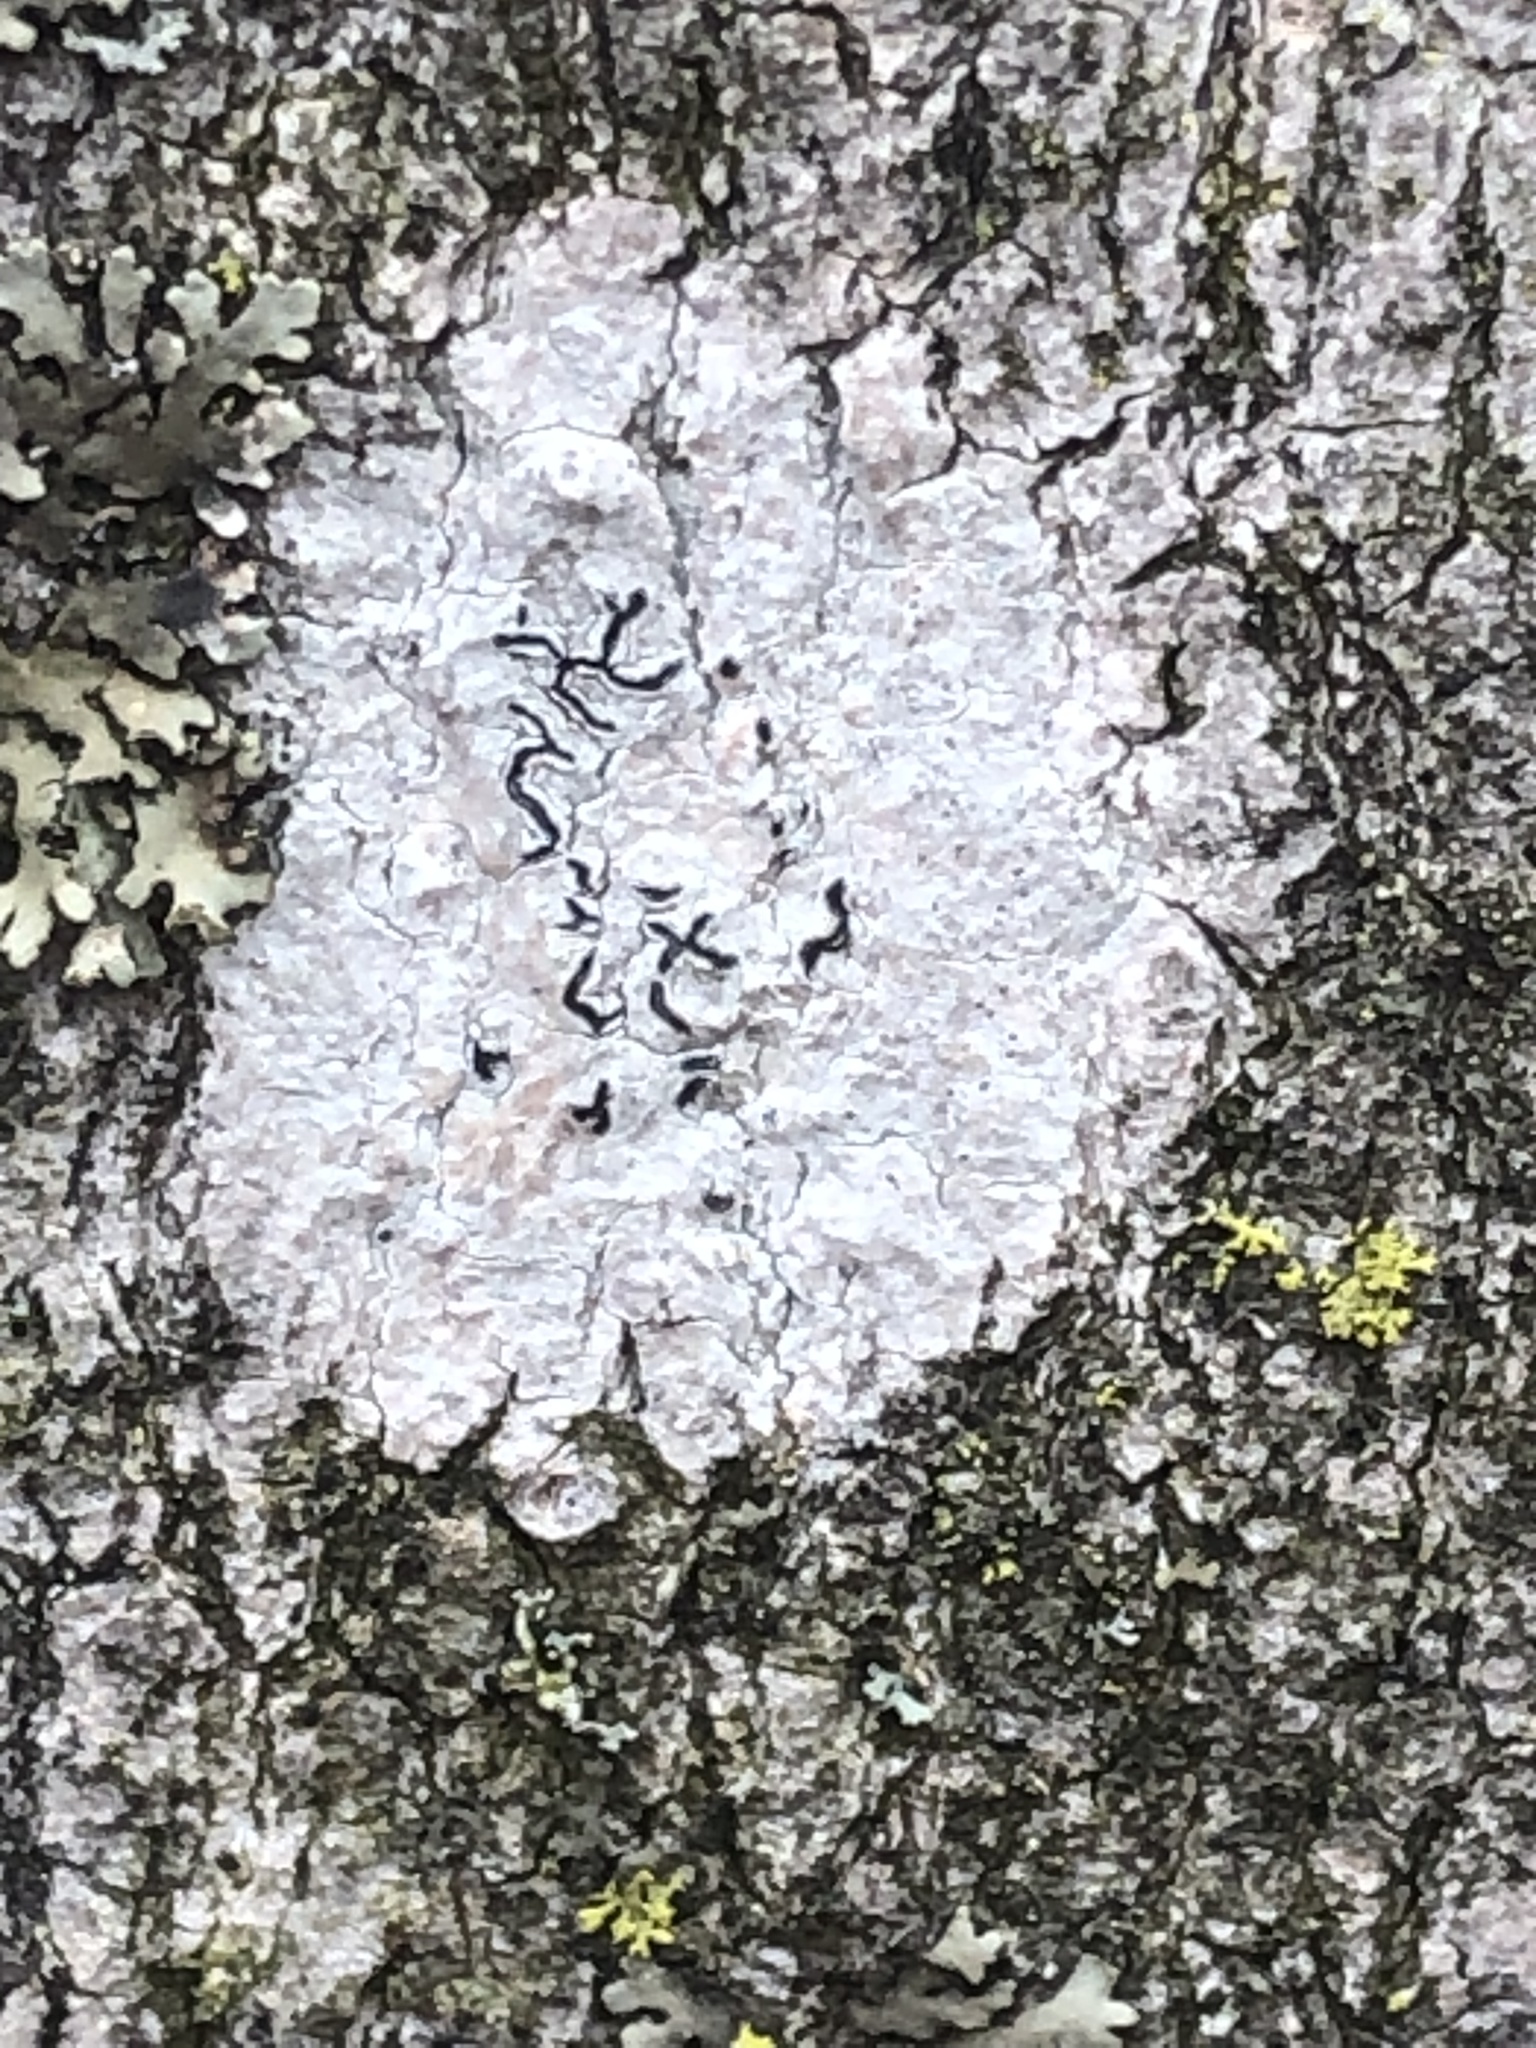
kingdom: Fungi
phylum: Ascomycota
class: Lecanoromycetes
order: Ostropales
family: Graphidaceae
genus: Graphis
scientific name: Graphis scripta
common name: Script lichen
